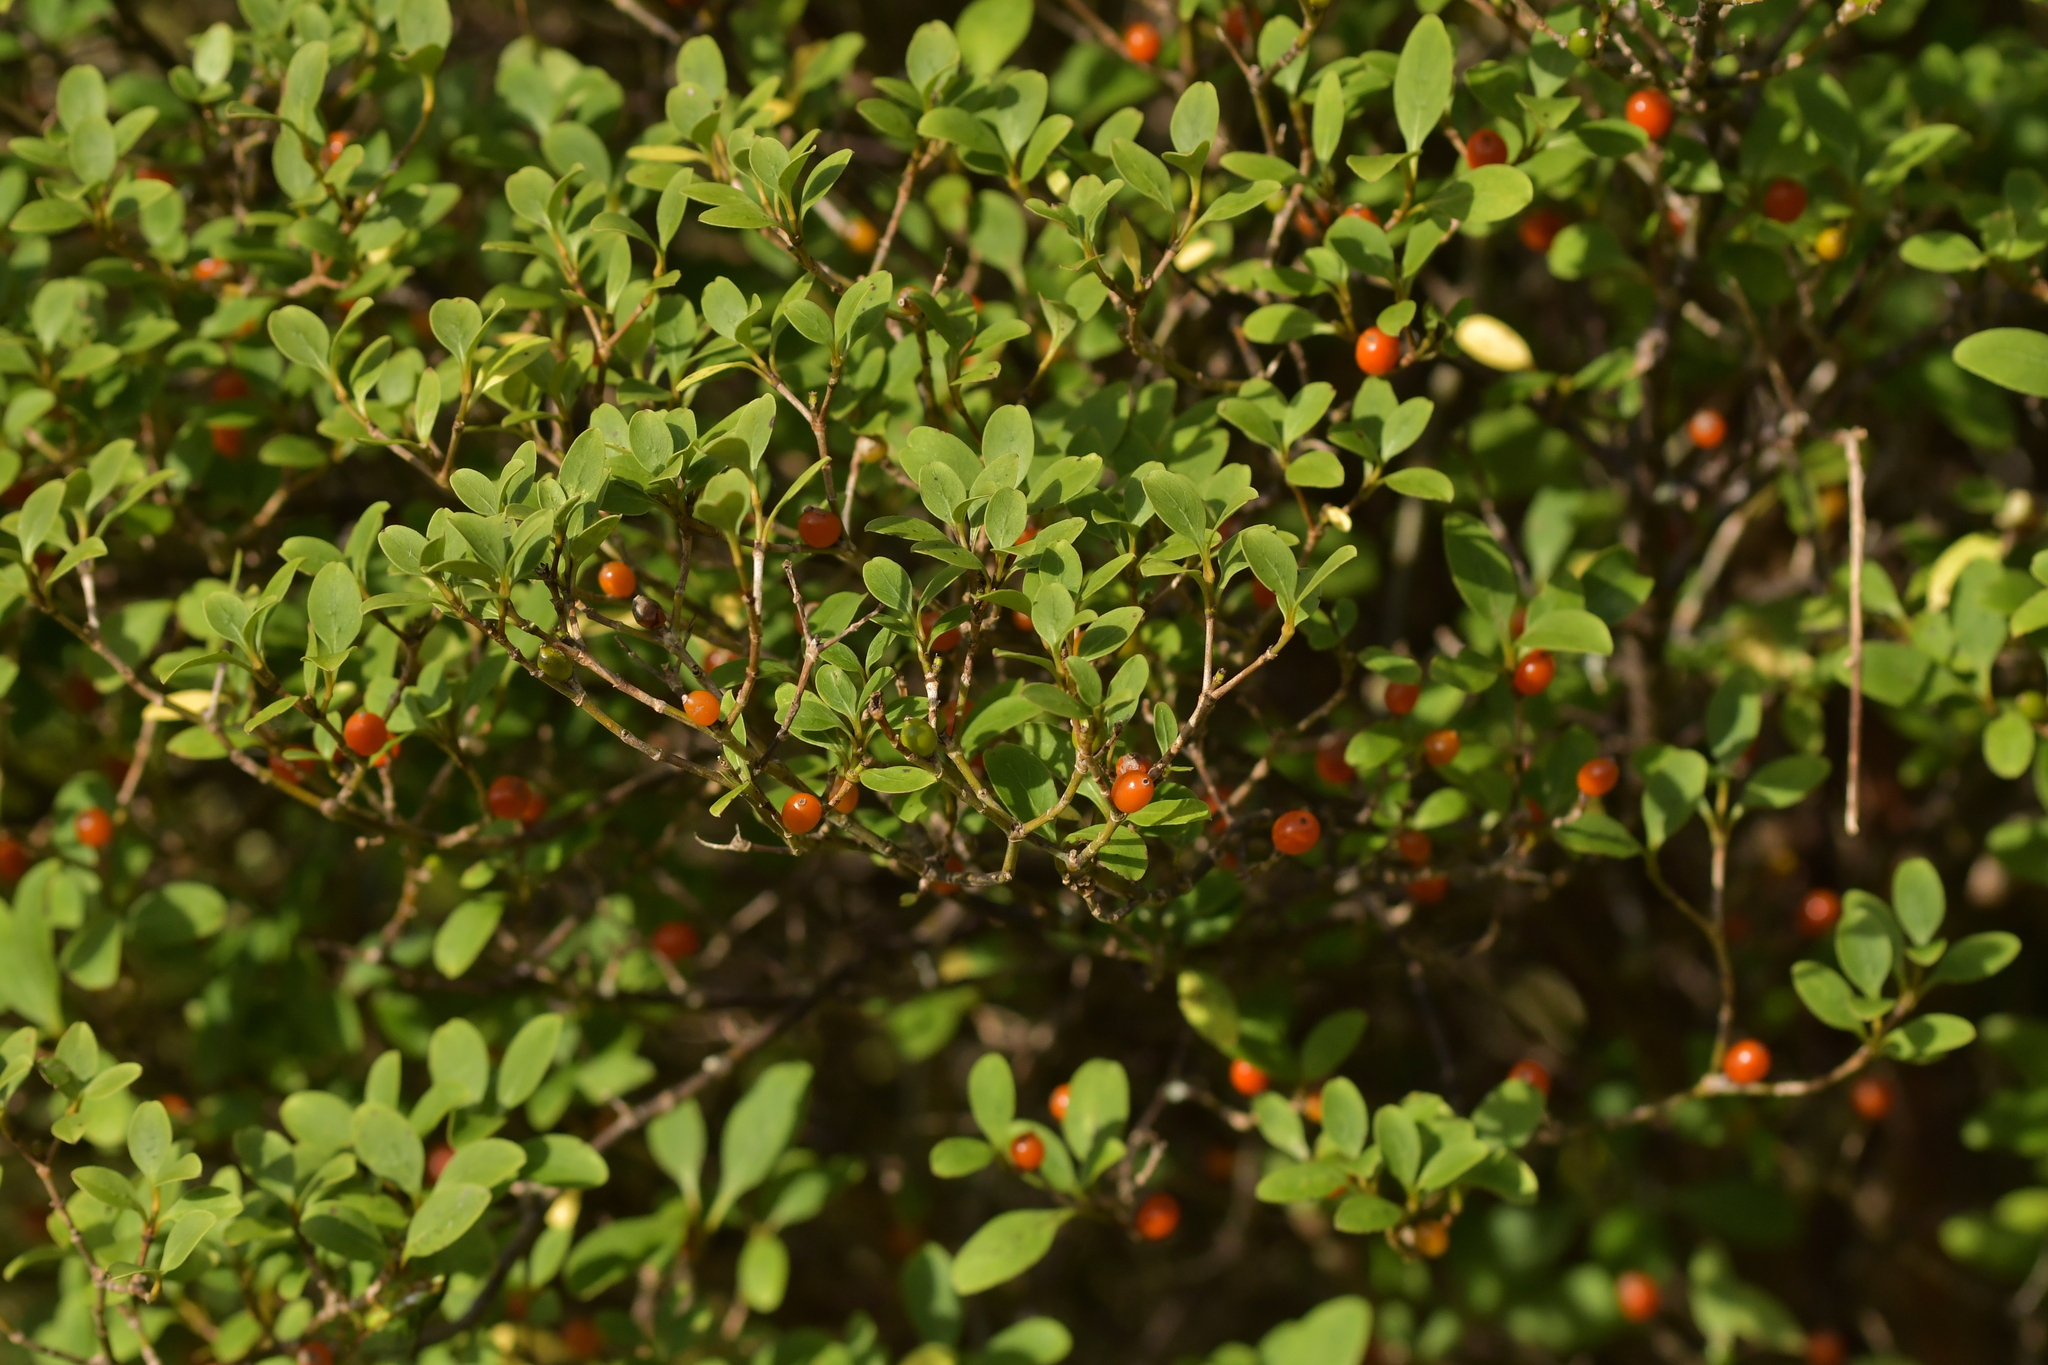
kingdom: Plantae
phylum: Tracheophyta
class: Magnoliopsida
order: Gentianales
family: Rubiaceae
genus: Coprosma
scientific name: Coprosma foetidissima
